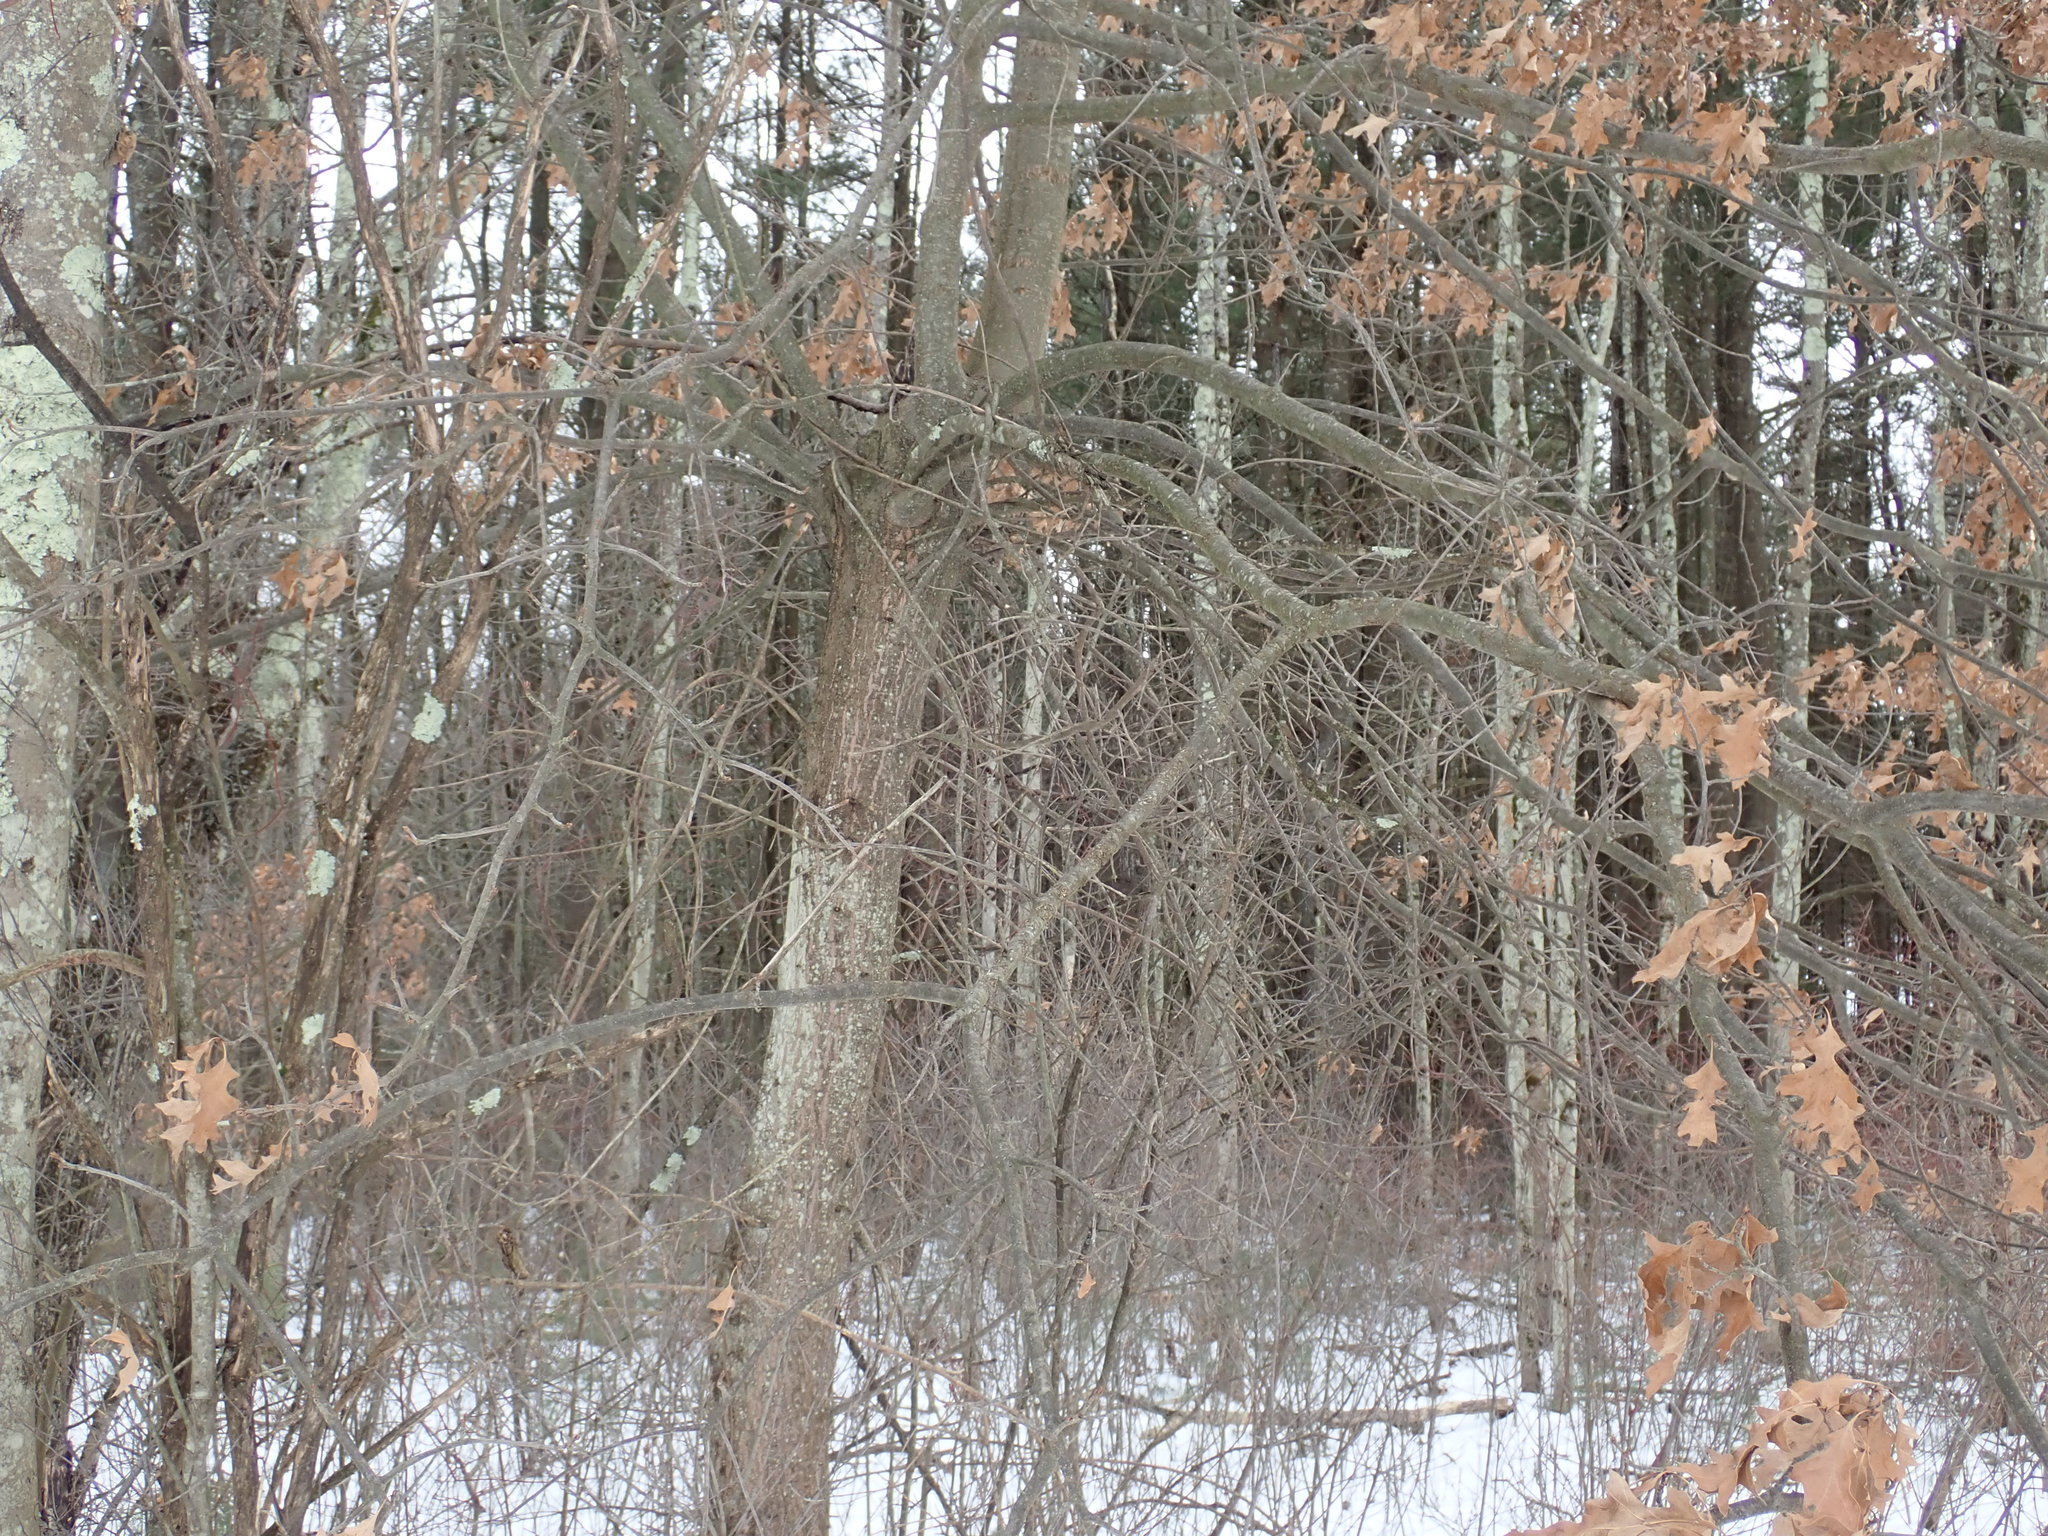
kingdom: Plantae
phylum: Tracheophyta
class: Magnoliopsida
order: Fagales
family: Fagaceae
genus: Quercus
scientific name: Quercus palustris
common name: Pin oak
